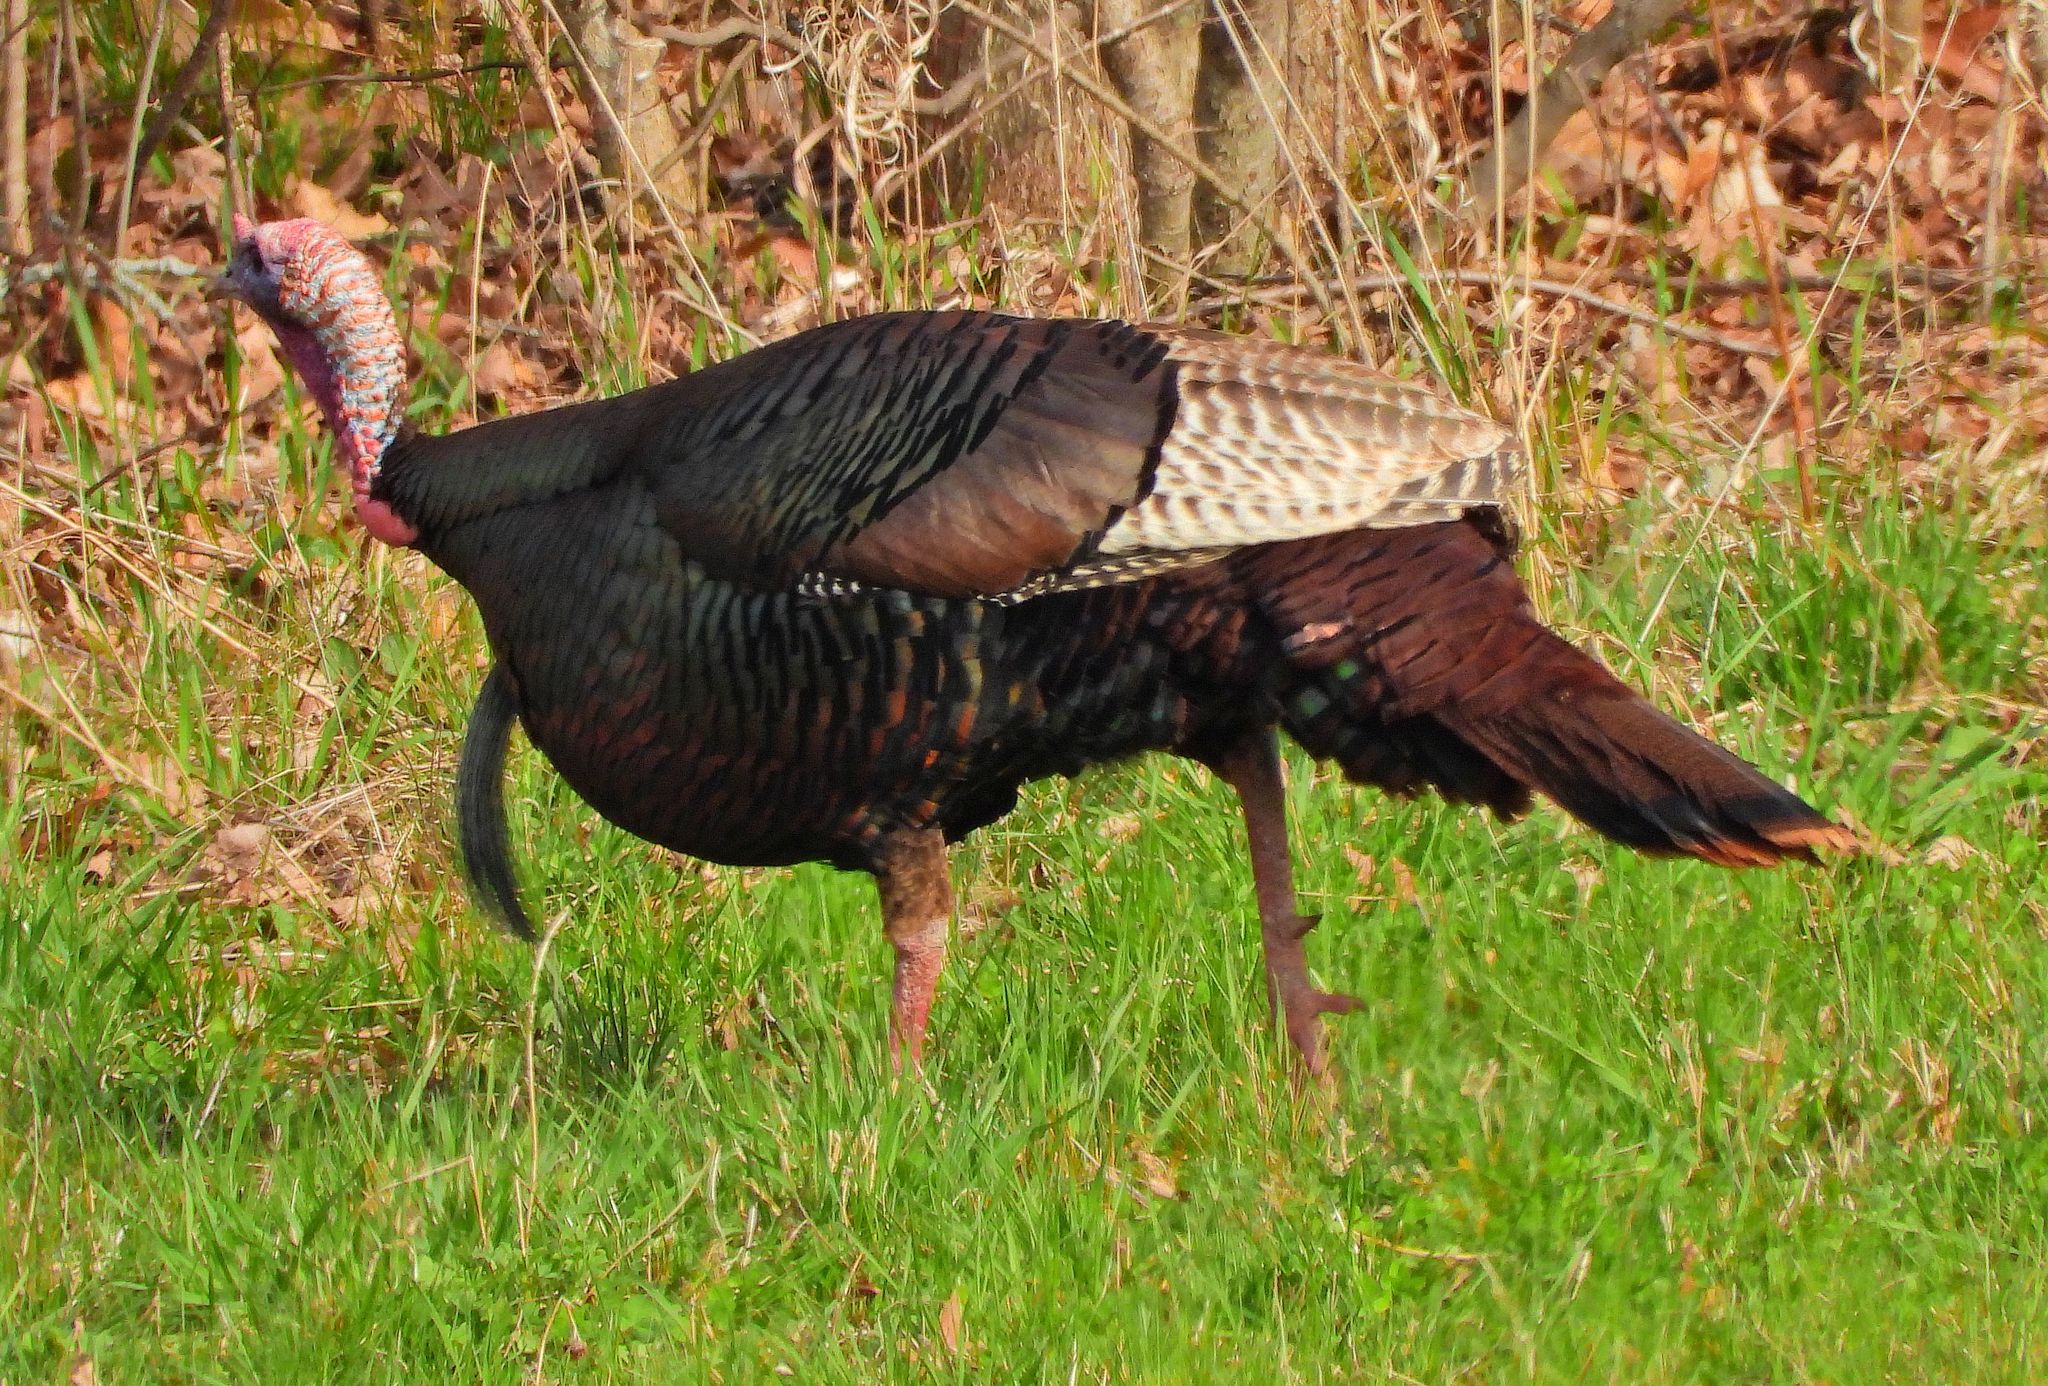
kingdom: Animalia
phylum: Chordata
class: Aves
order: Galliformes
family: Phasianidae
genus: Meleagris
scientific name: Meleagris gallopavo
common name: Wild turkey
